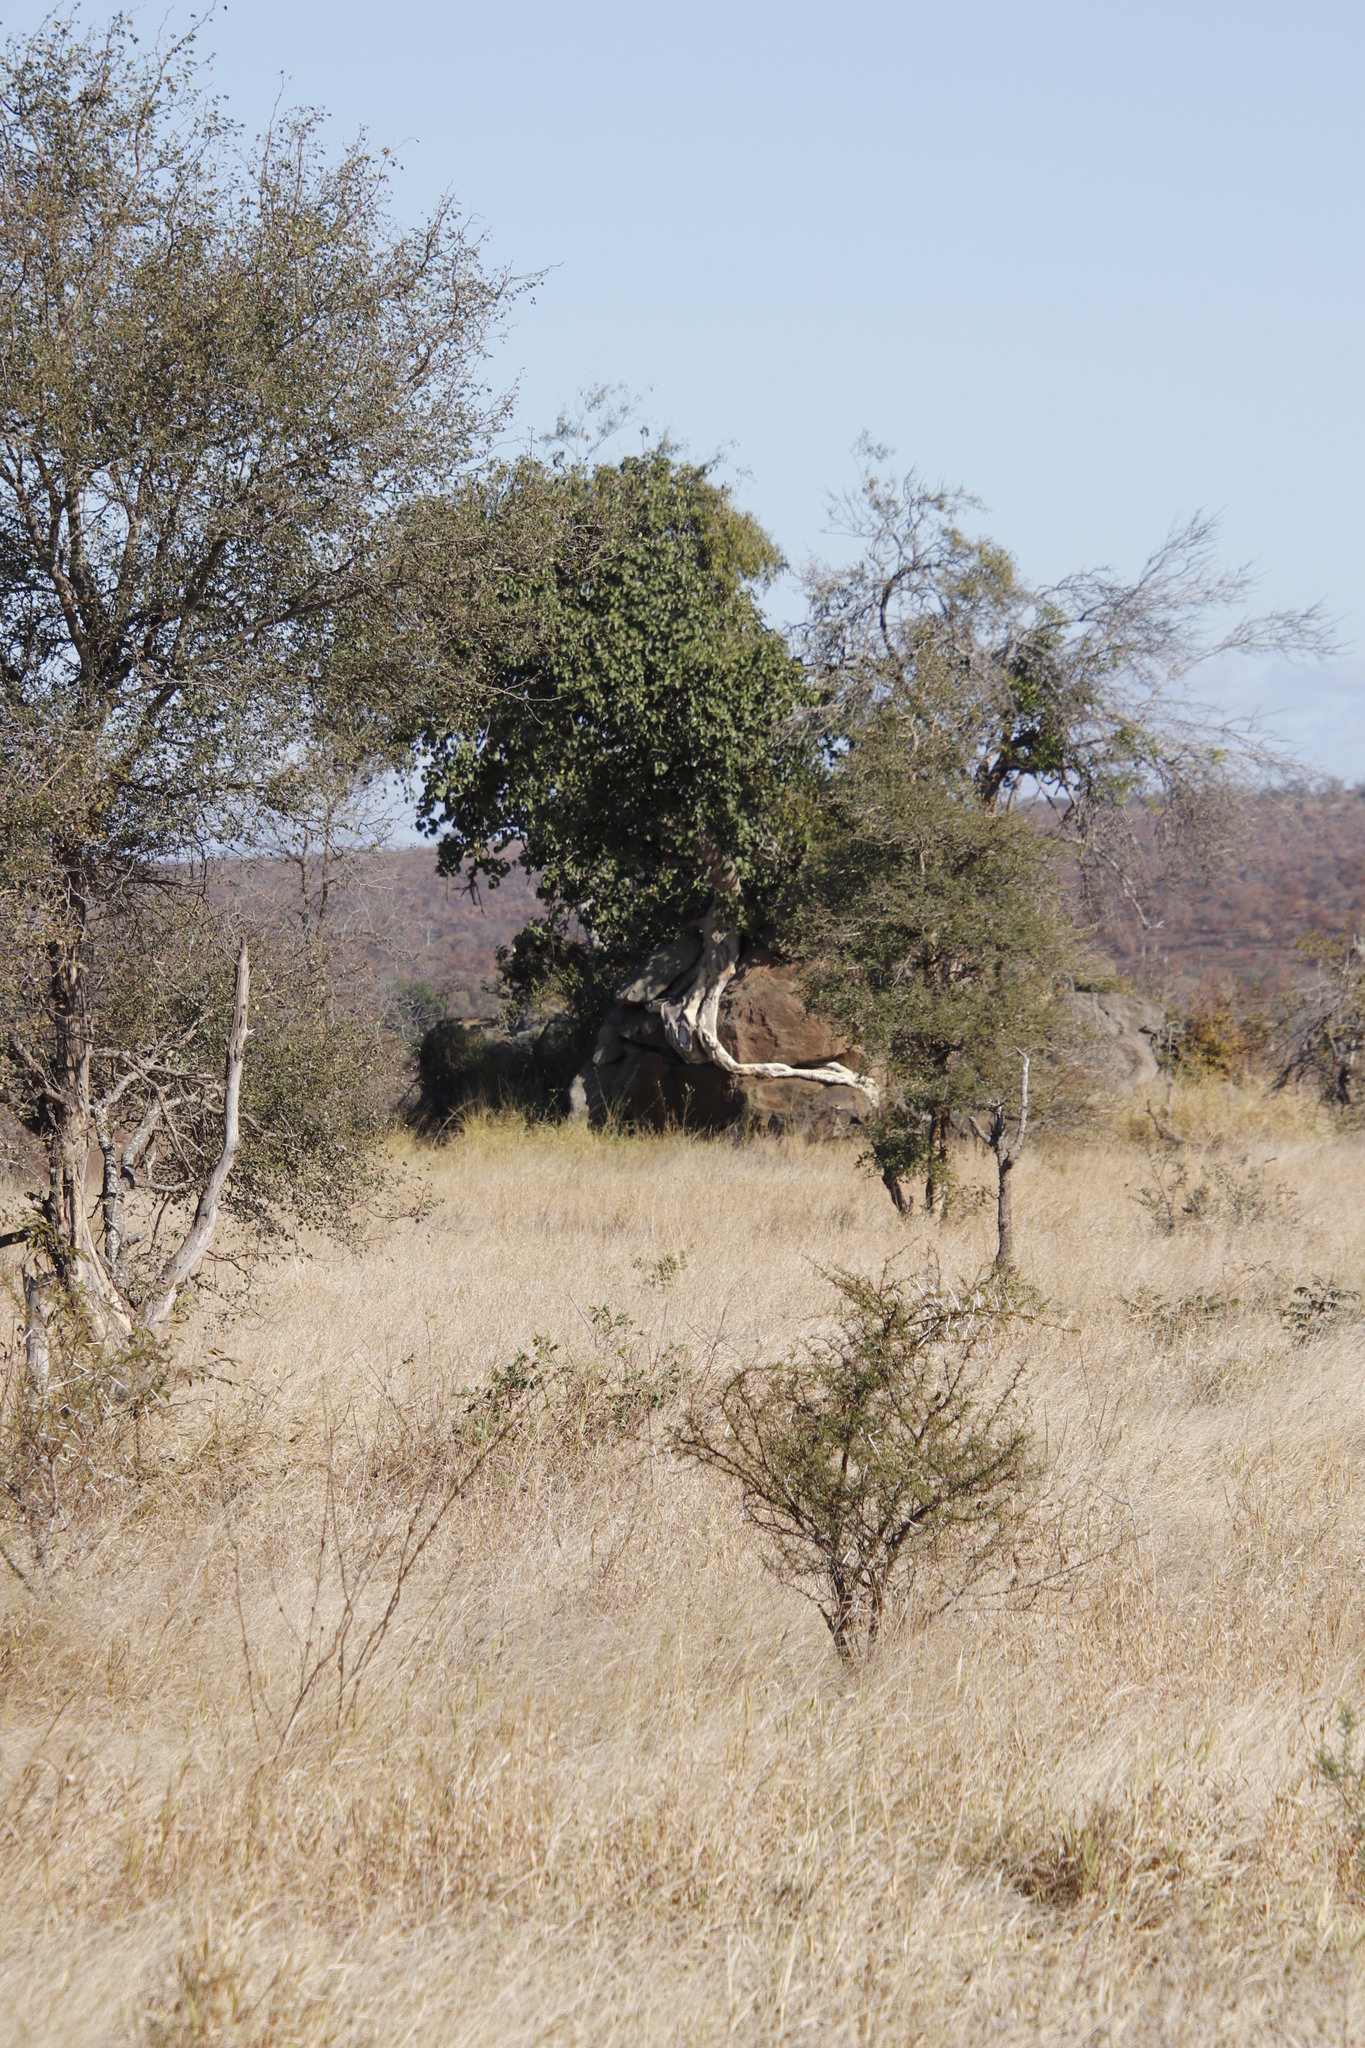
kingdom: Plantae
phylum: Tracheophyta
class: Magnoliopsida
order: Rosales
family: Moraceae
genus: Ficus
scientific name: Ficus abutilifolia
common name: Large-leaved rock fig
